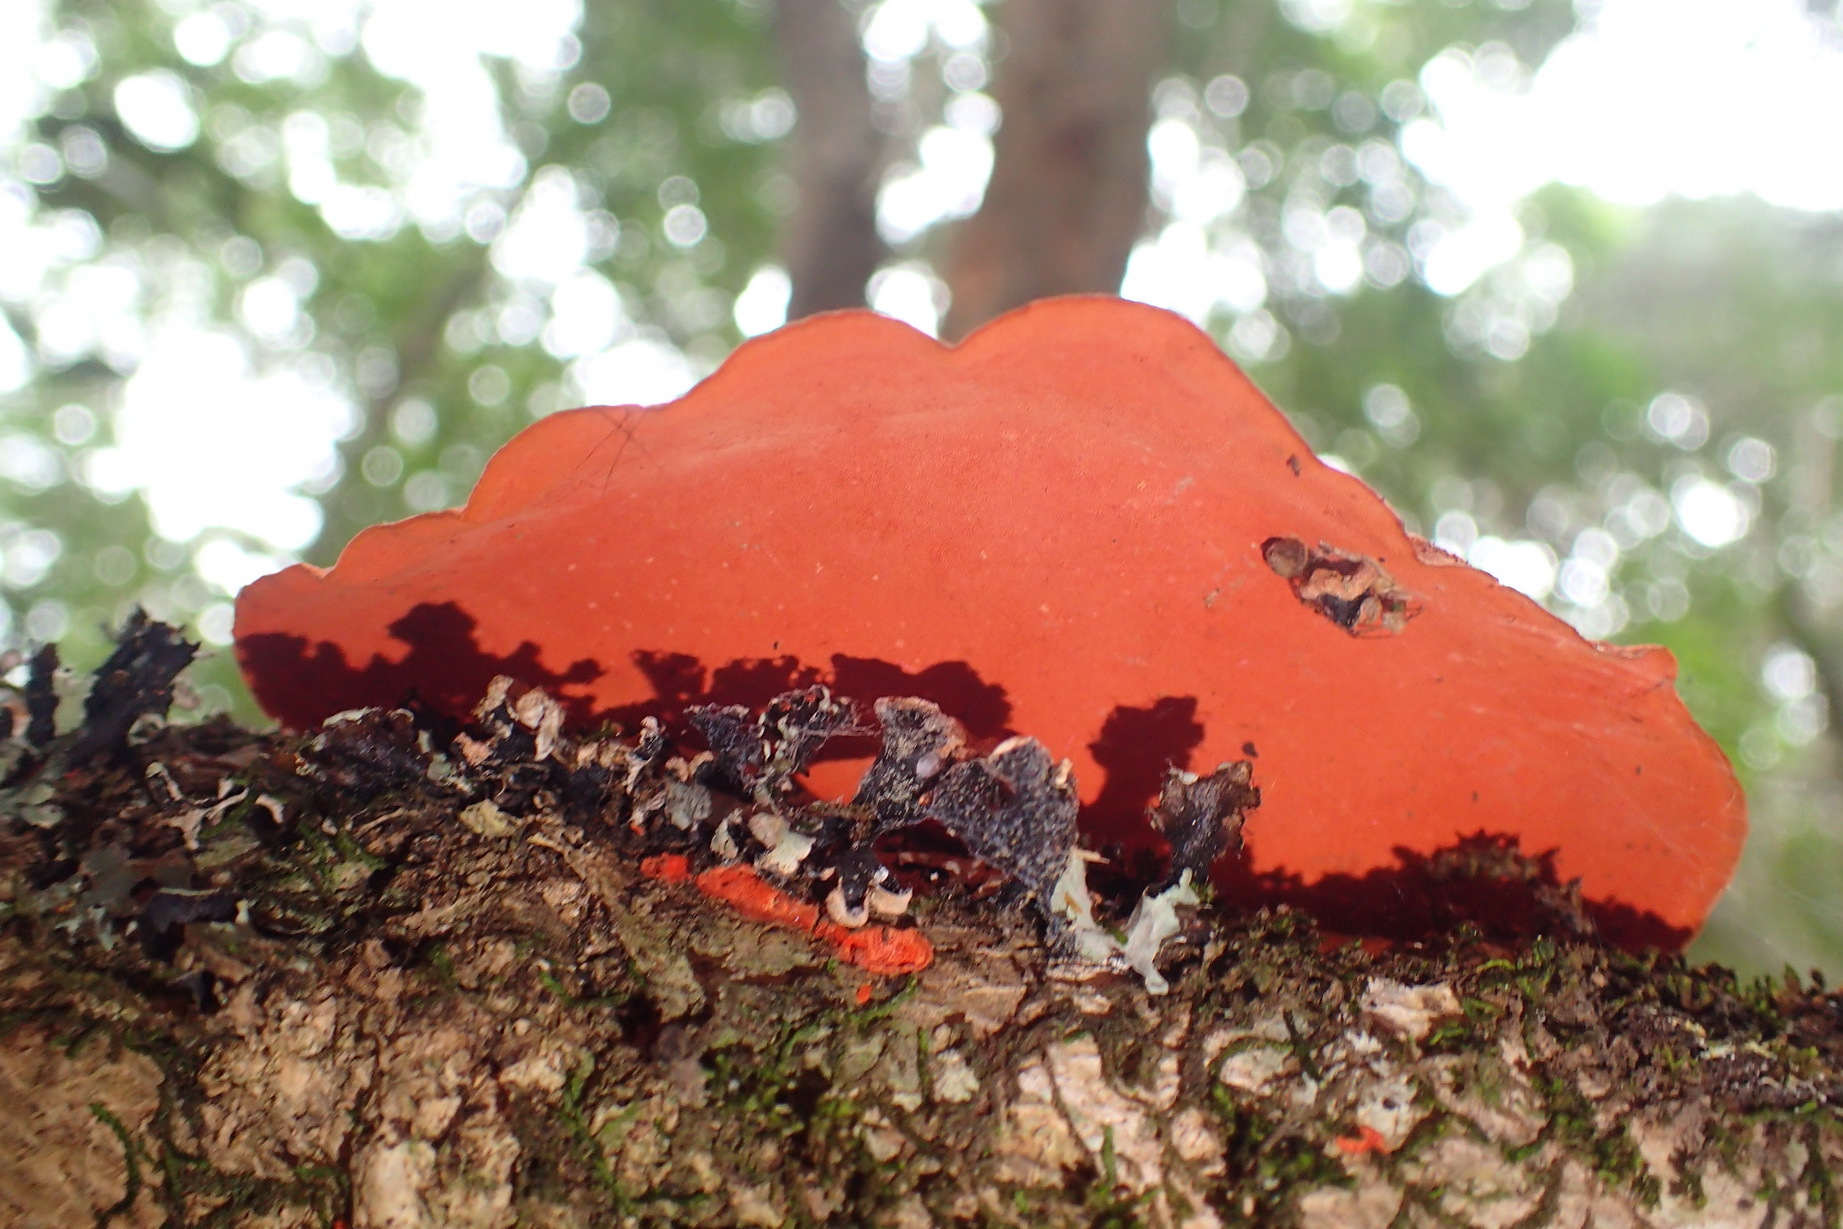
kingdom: Fungi
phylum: Basidiomycota
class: Agaricomycetes
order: Polyporales
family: Polyporaceae
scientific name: Polyporaceae
